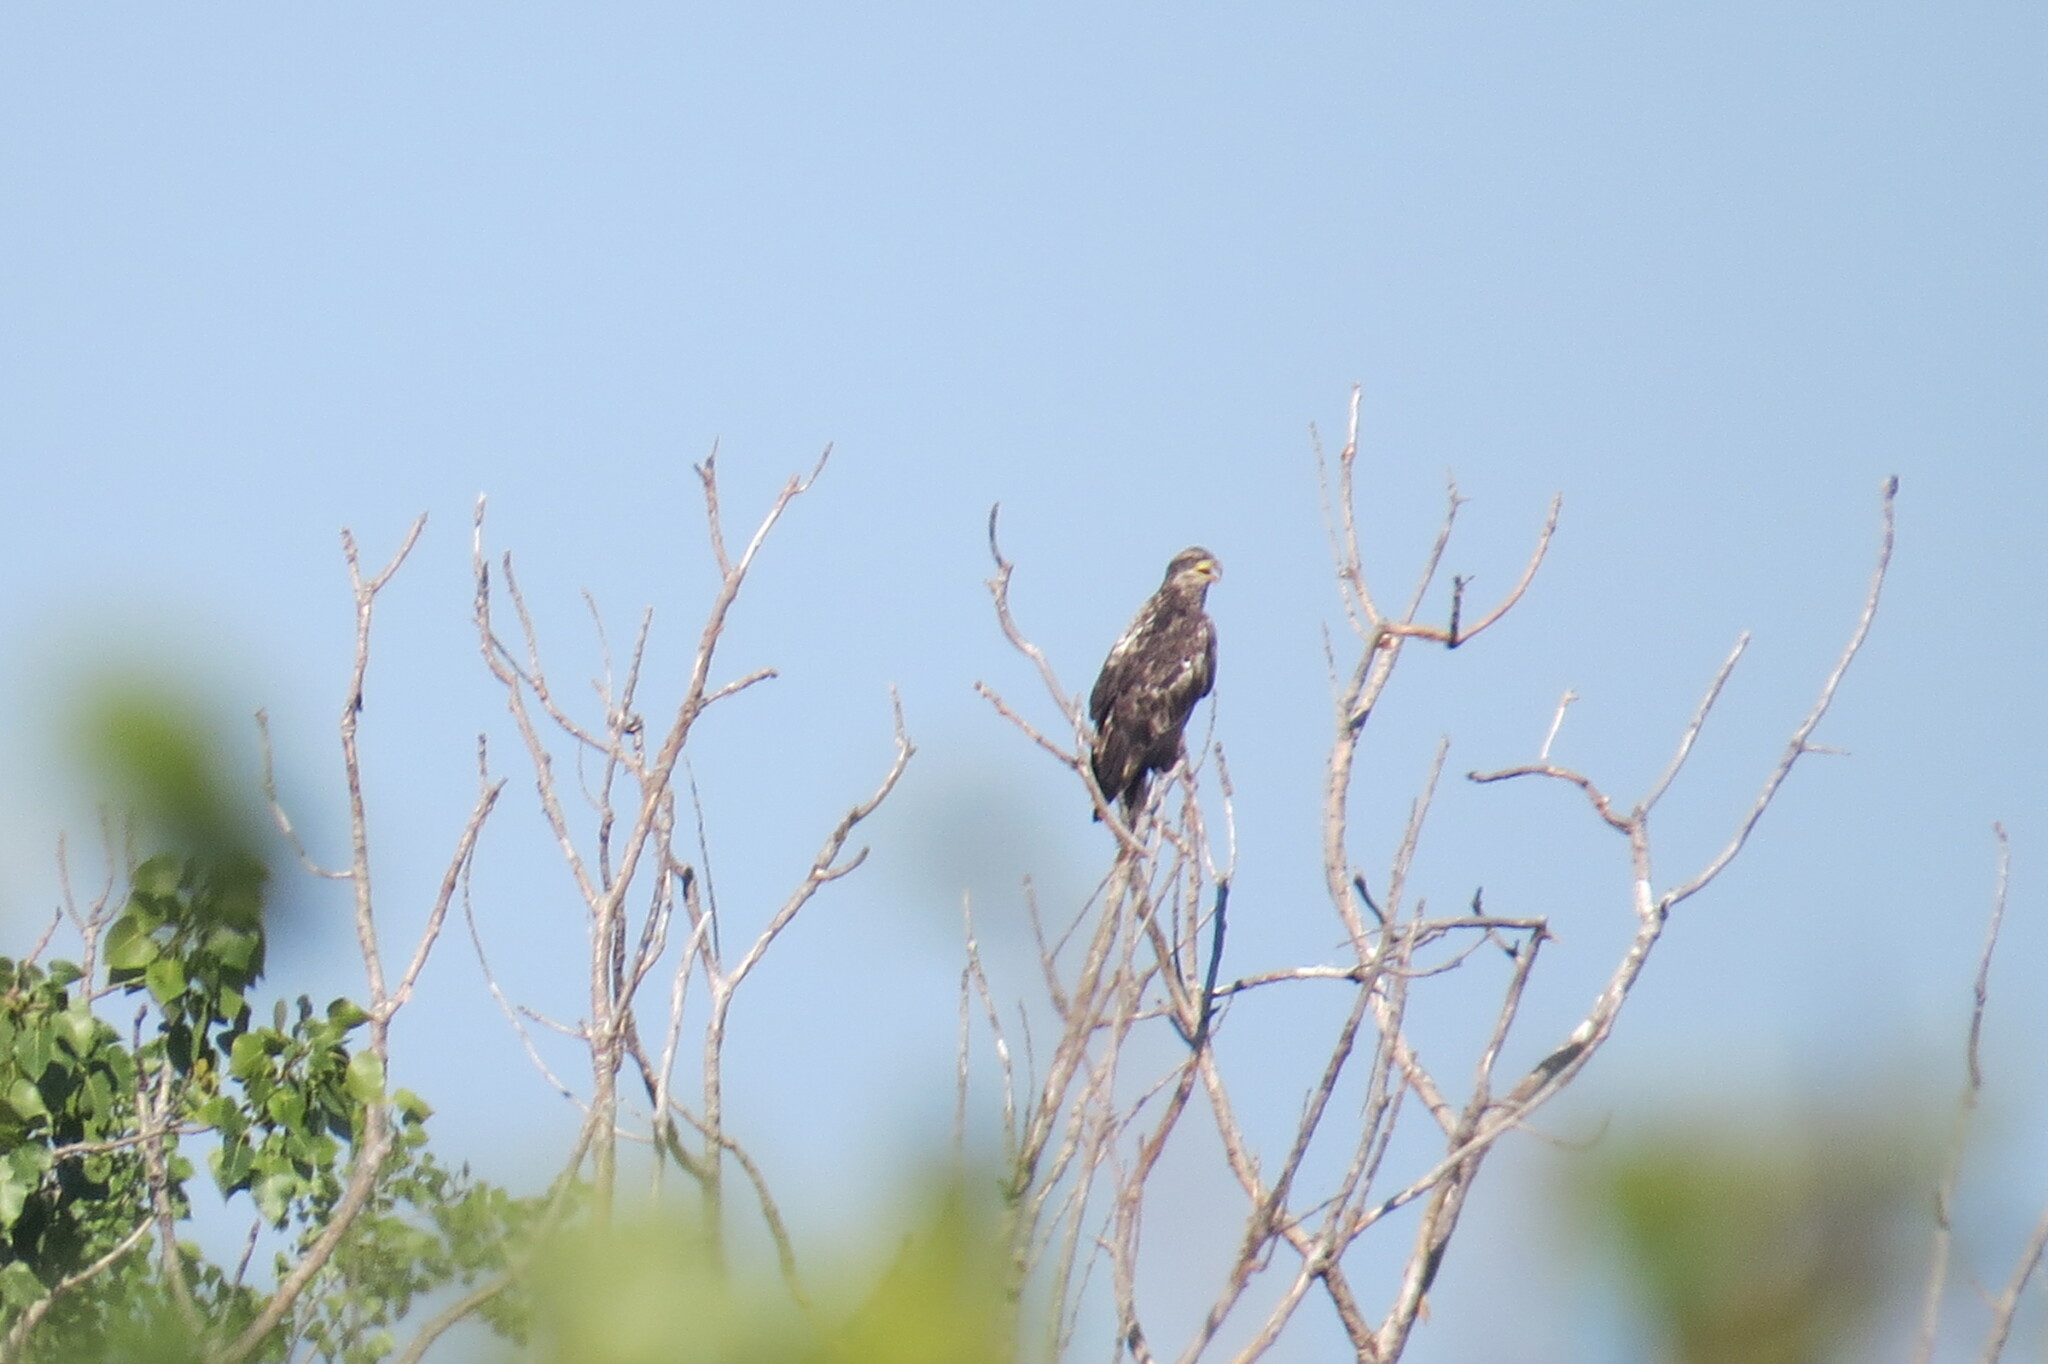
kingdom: Animalia
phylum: Chordata
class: Aves
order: Accipitriformes
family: Accipitridae
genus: Haliaeetus
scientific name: Haliaeetus leucocephalus
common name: Bald eagle
